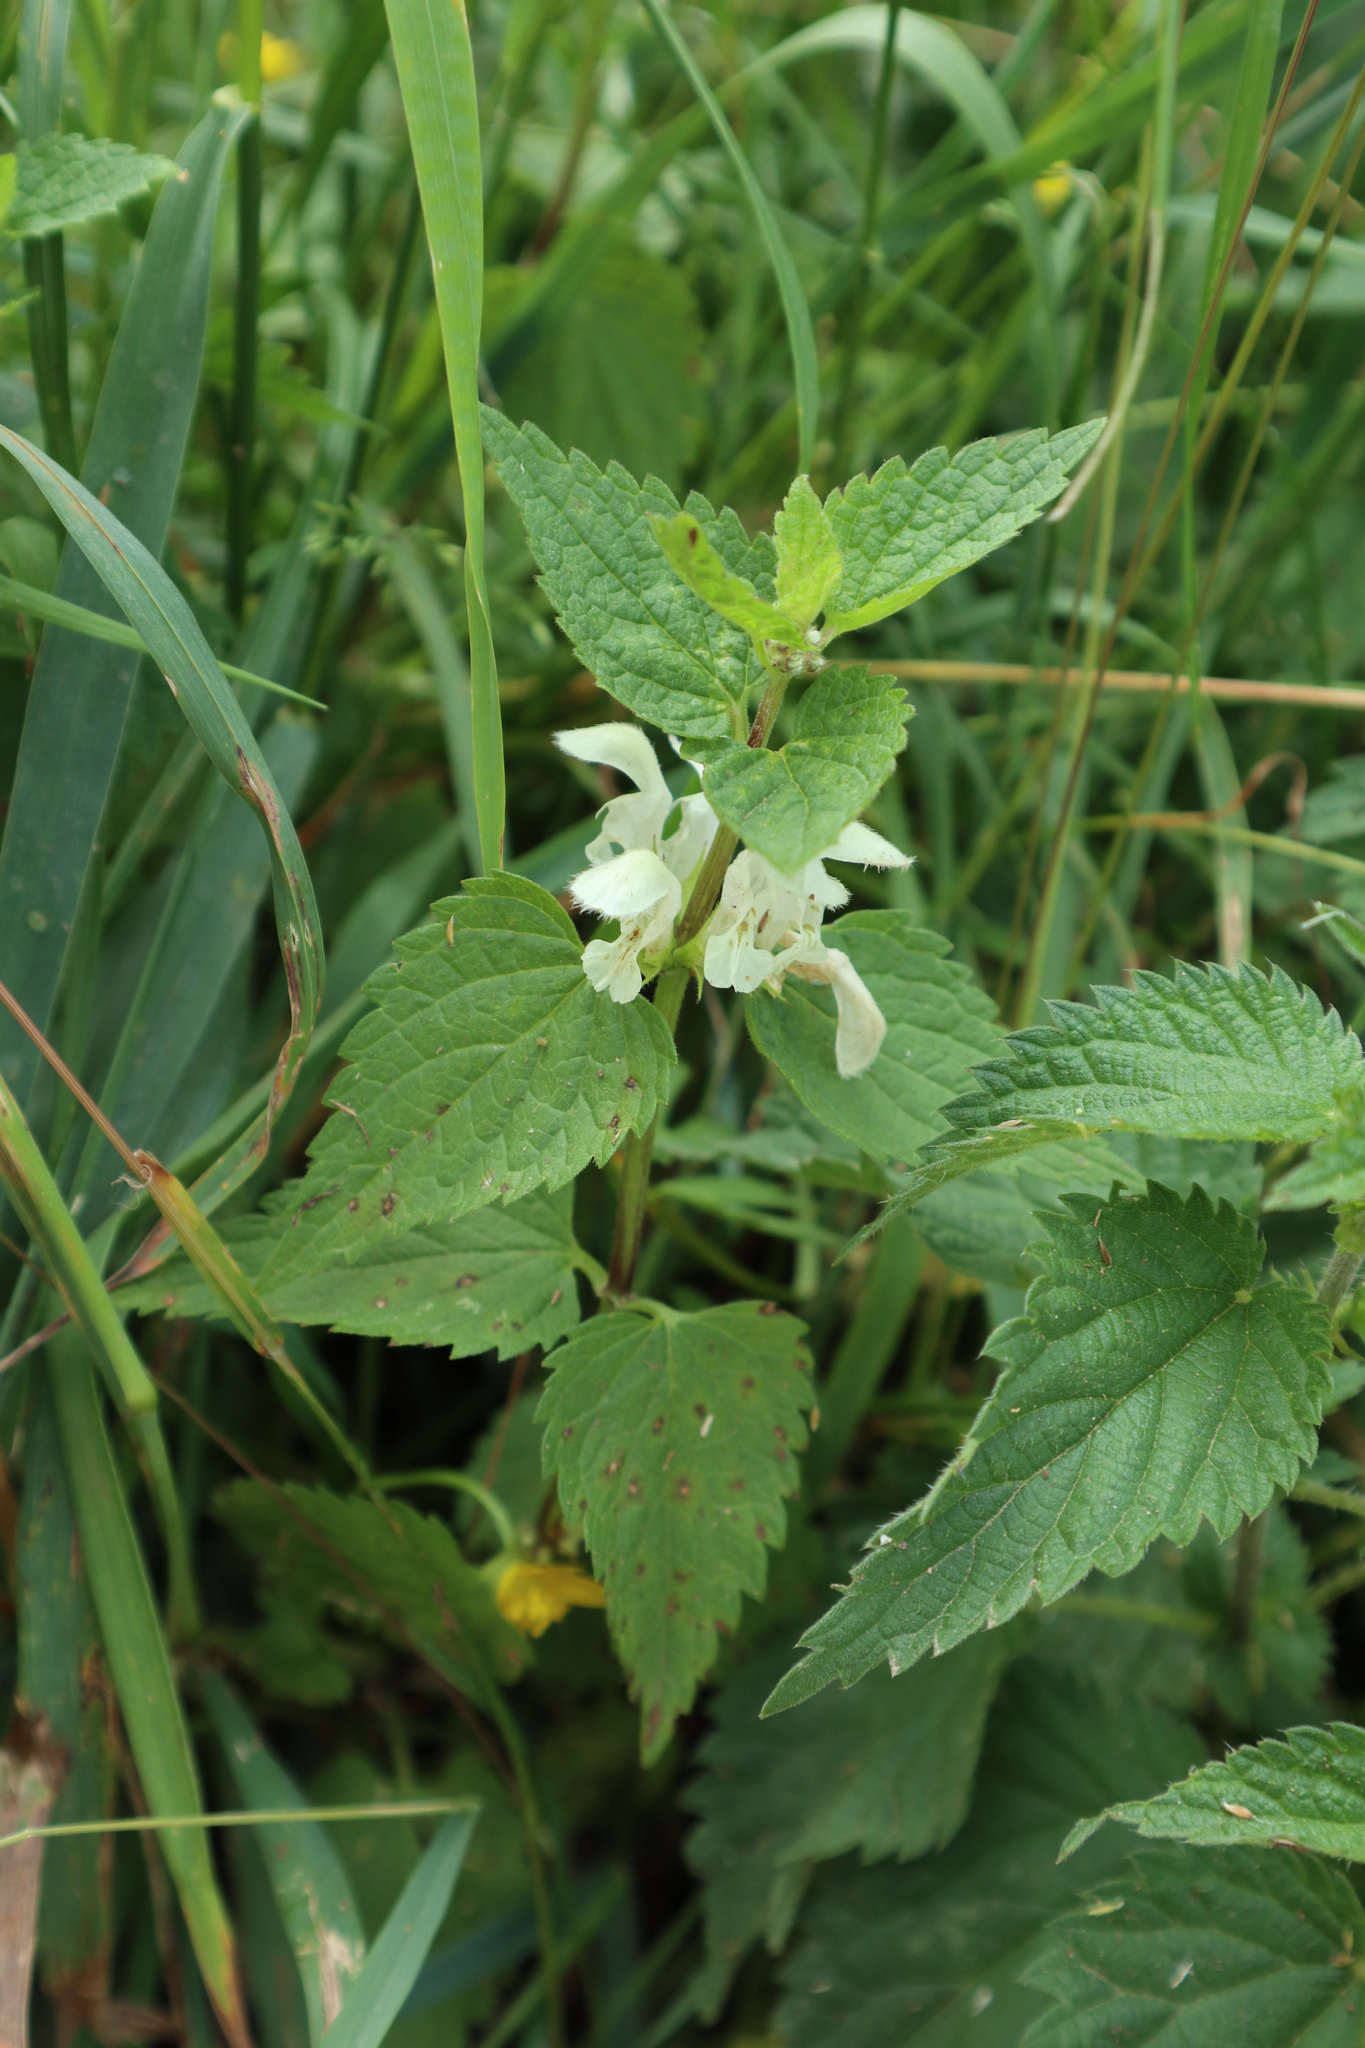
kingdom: Plantae
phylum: Tracheophyta
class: Magnoliopsida
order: Lamiales
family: Lamiaceae
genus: Lamium
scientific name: Lamium album
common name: White dead-nettle
